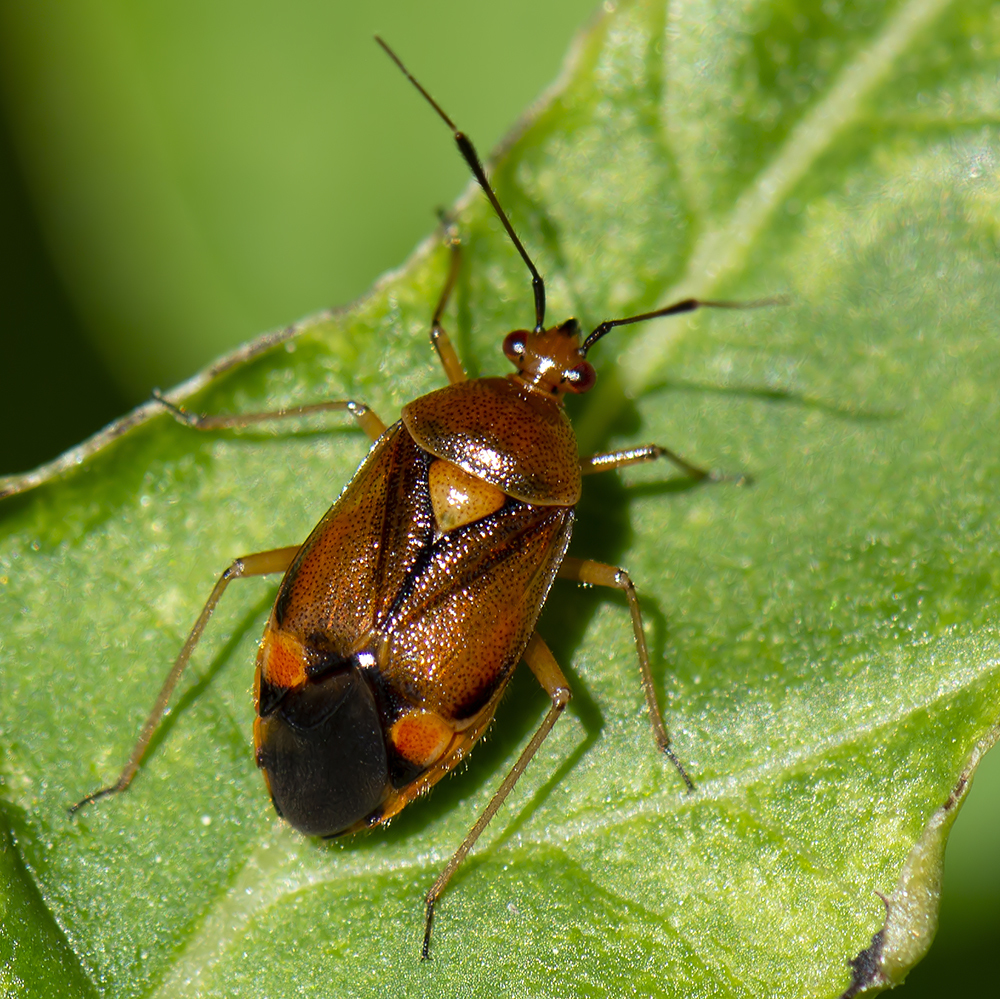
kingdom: Animalia
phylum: Arthropoda
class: Insecta
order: Hemiptera
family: Miridae
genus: Deraeocoris
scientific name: Deraeocoris ruber
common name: Plant bug
